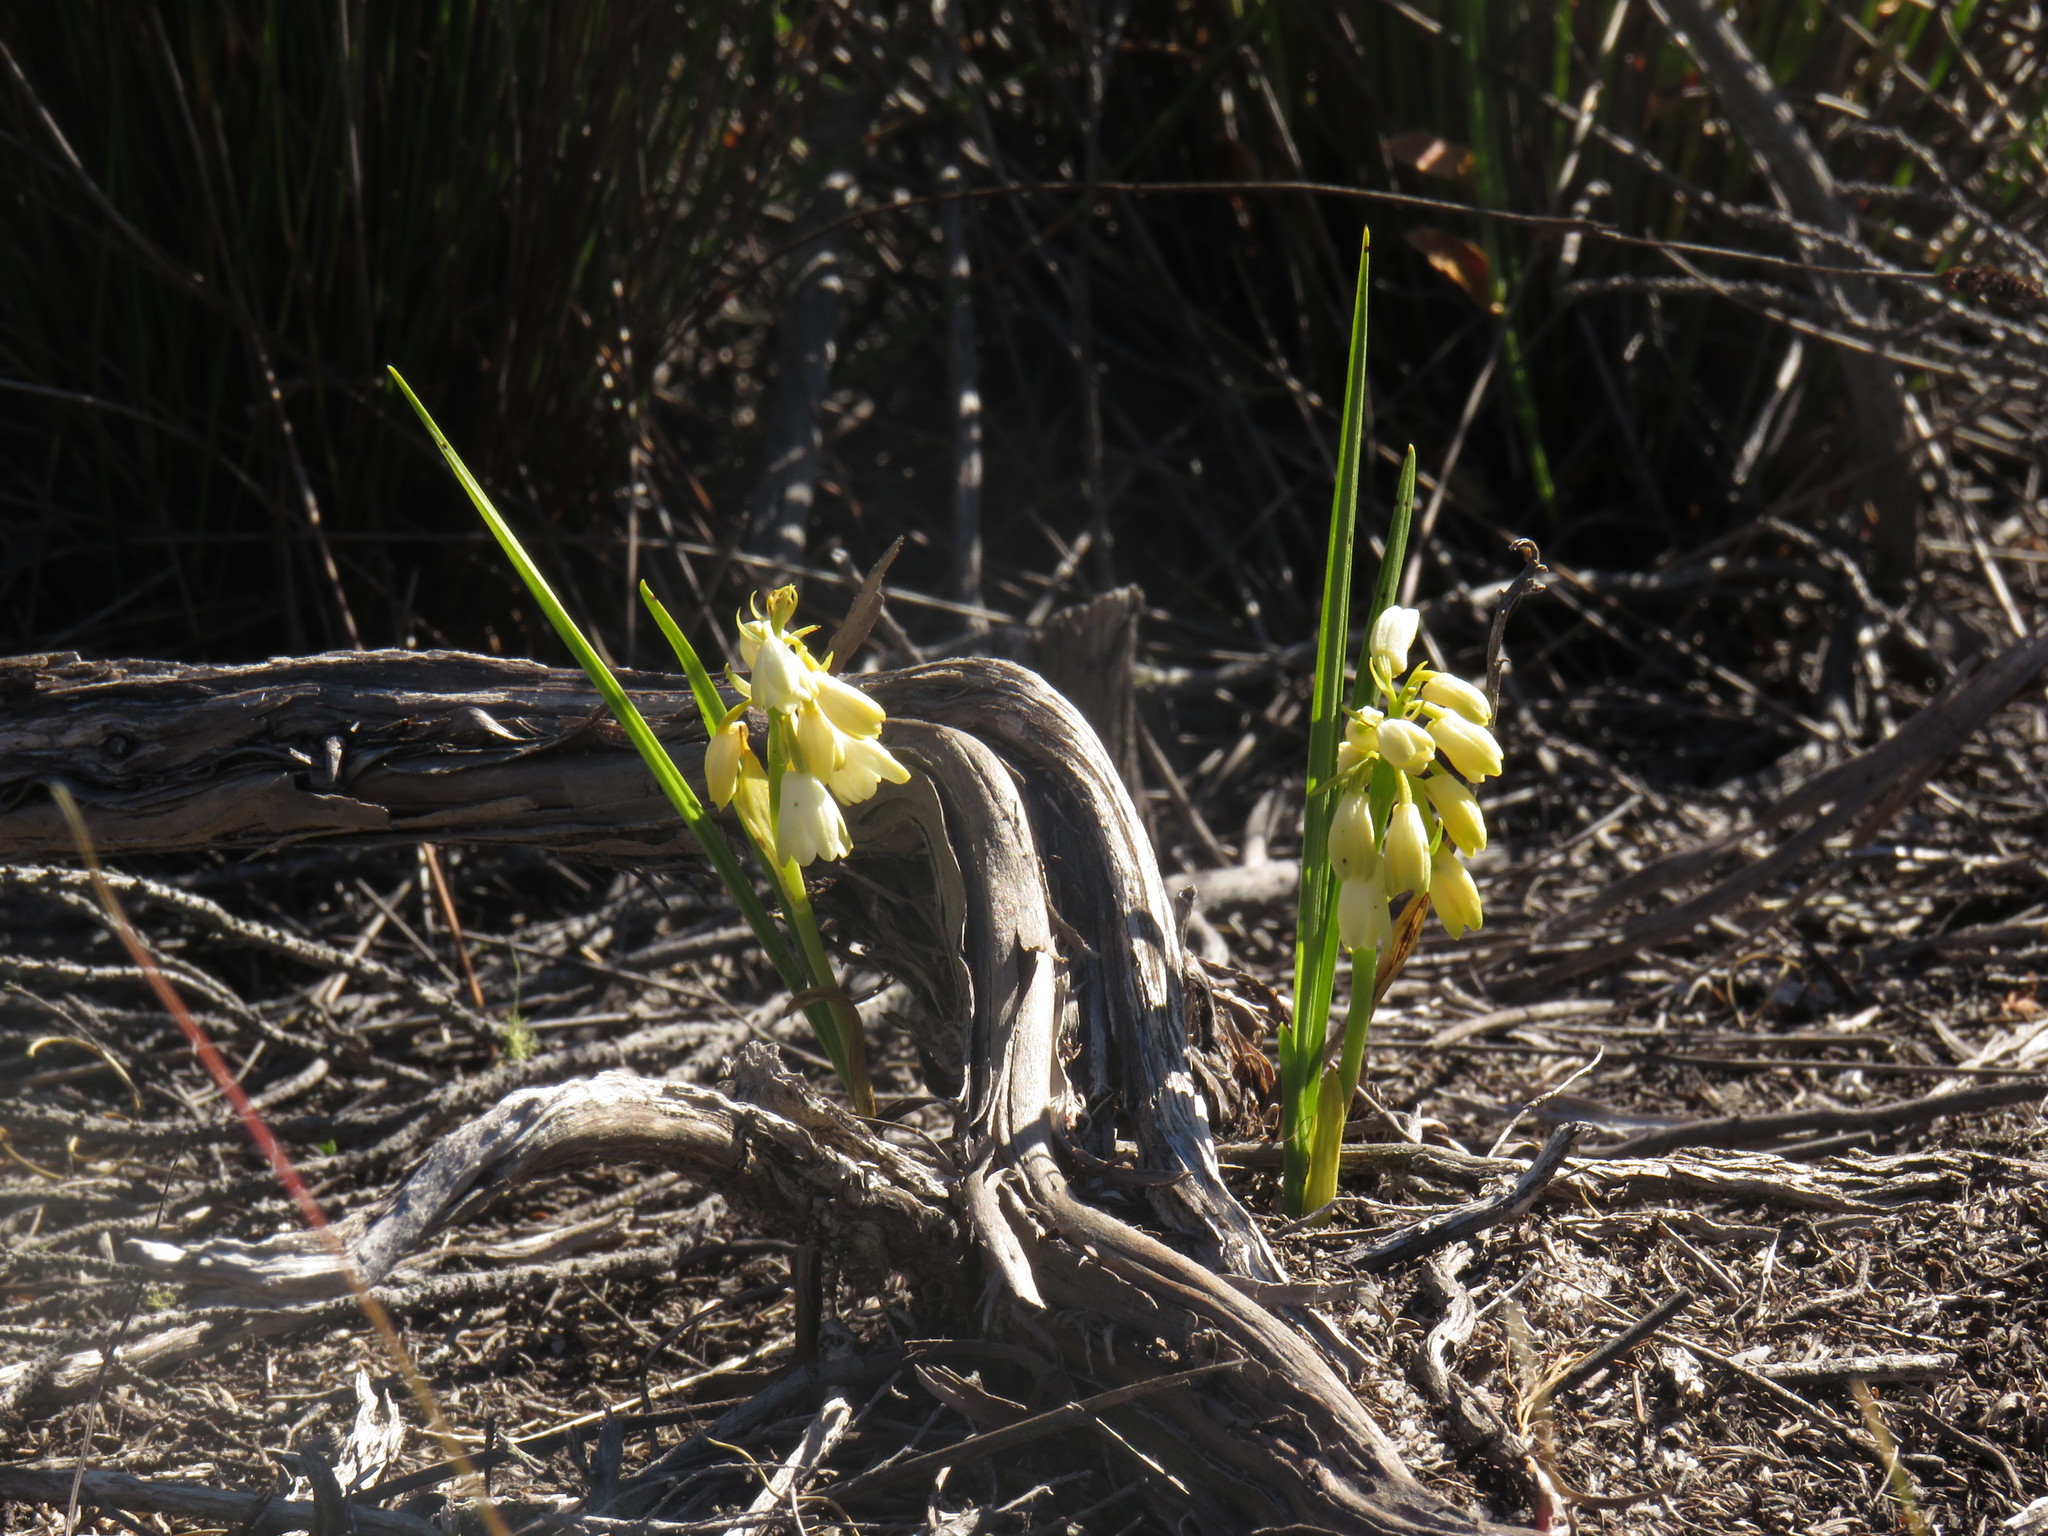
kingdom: Plantae
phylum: Tracheophyta
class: Liliopsida
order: Asparagales
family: Orchidaceae
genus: Eulophia
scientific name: Eulophia aculeata
